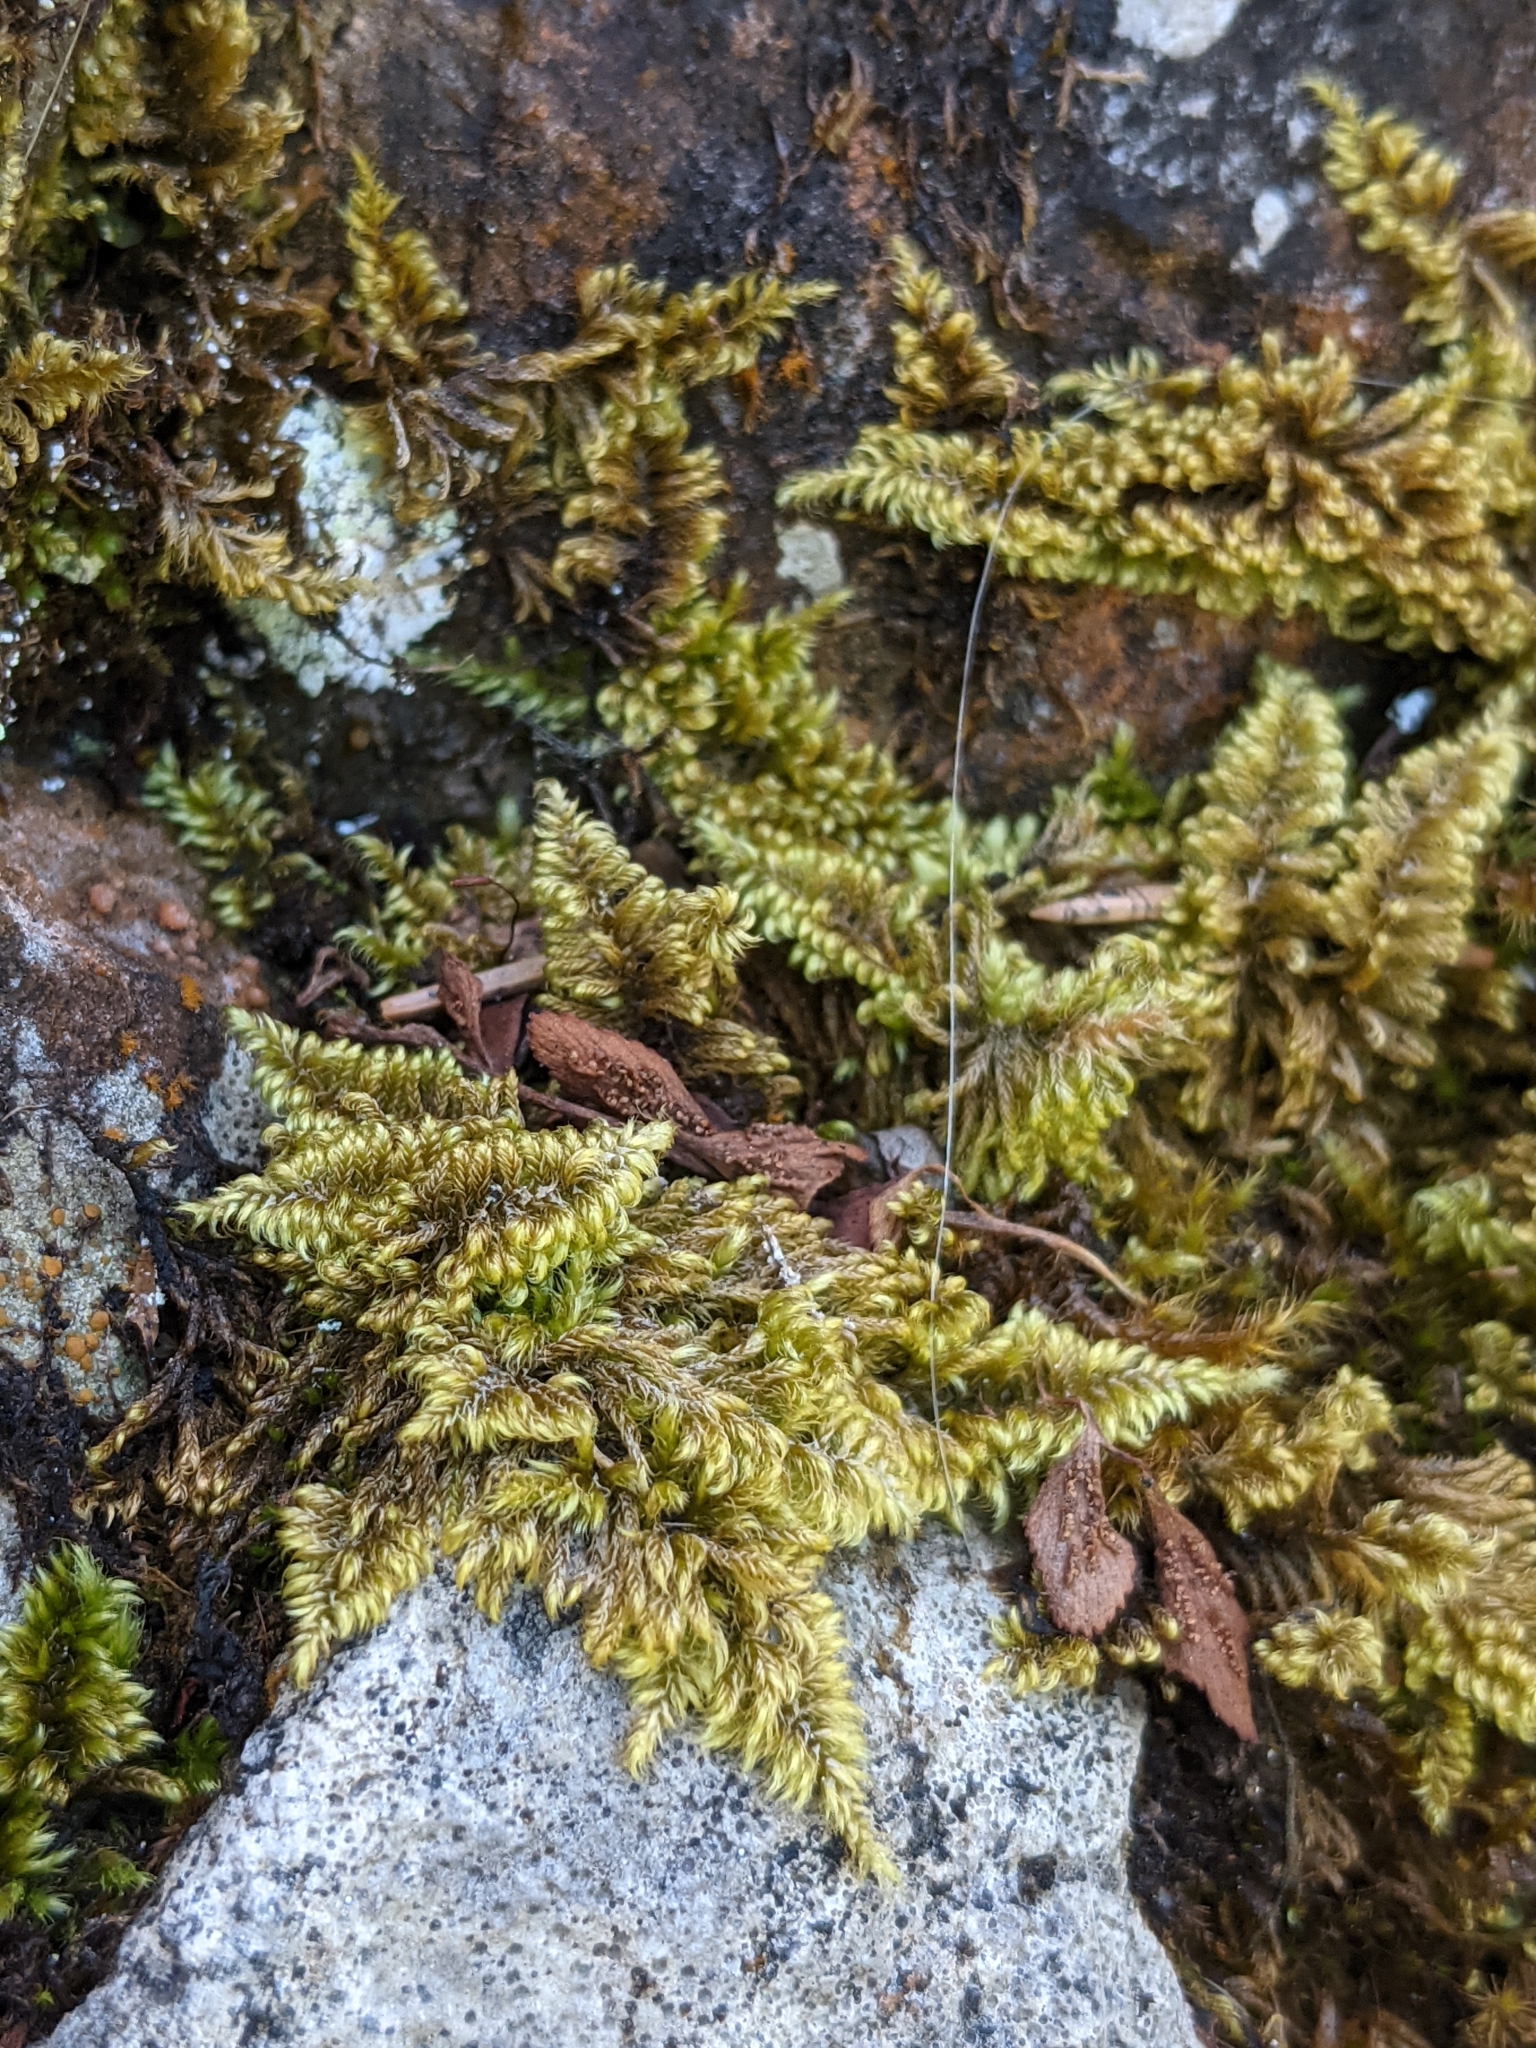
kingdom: Plantae
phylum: Bryophyta
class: Bryopsida
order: Hypnales
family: Myuriaceae
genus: Ctenidium
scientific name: Ctenidium molluscum
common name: Chalk comb-moss
